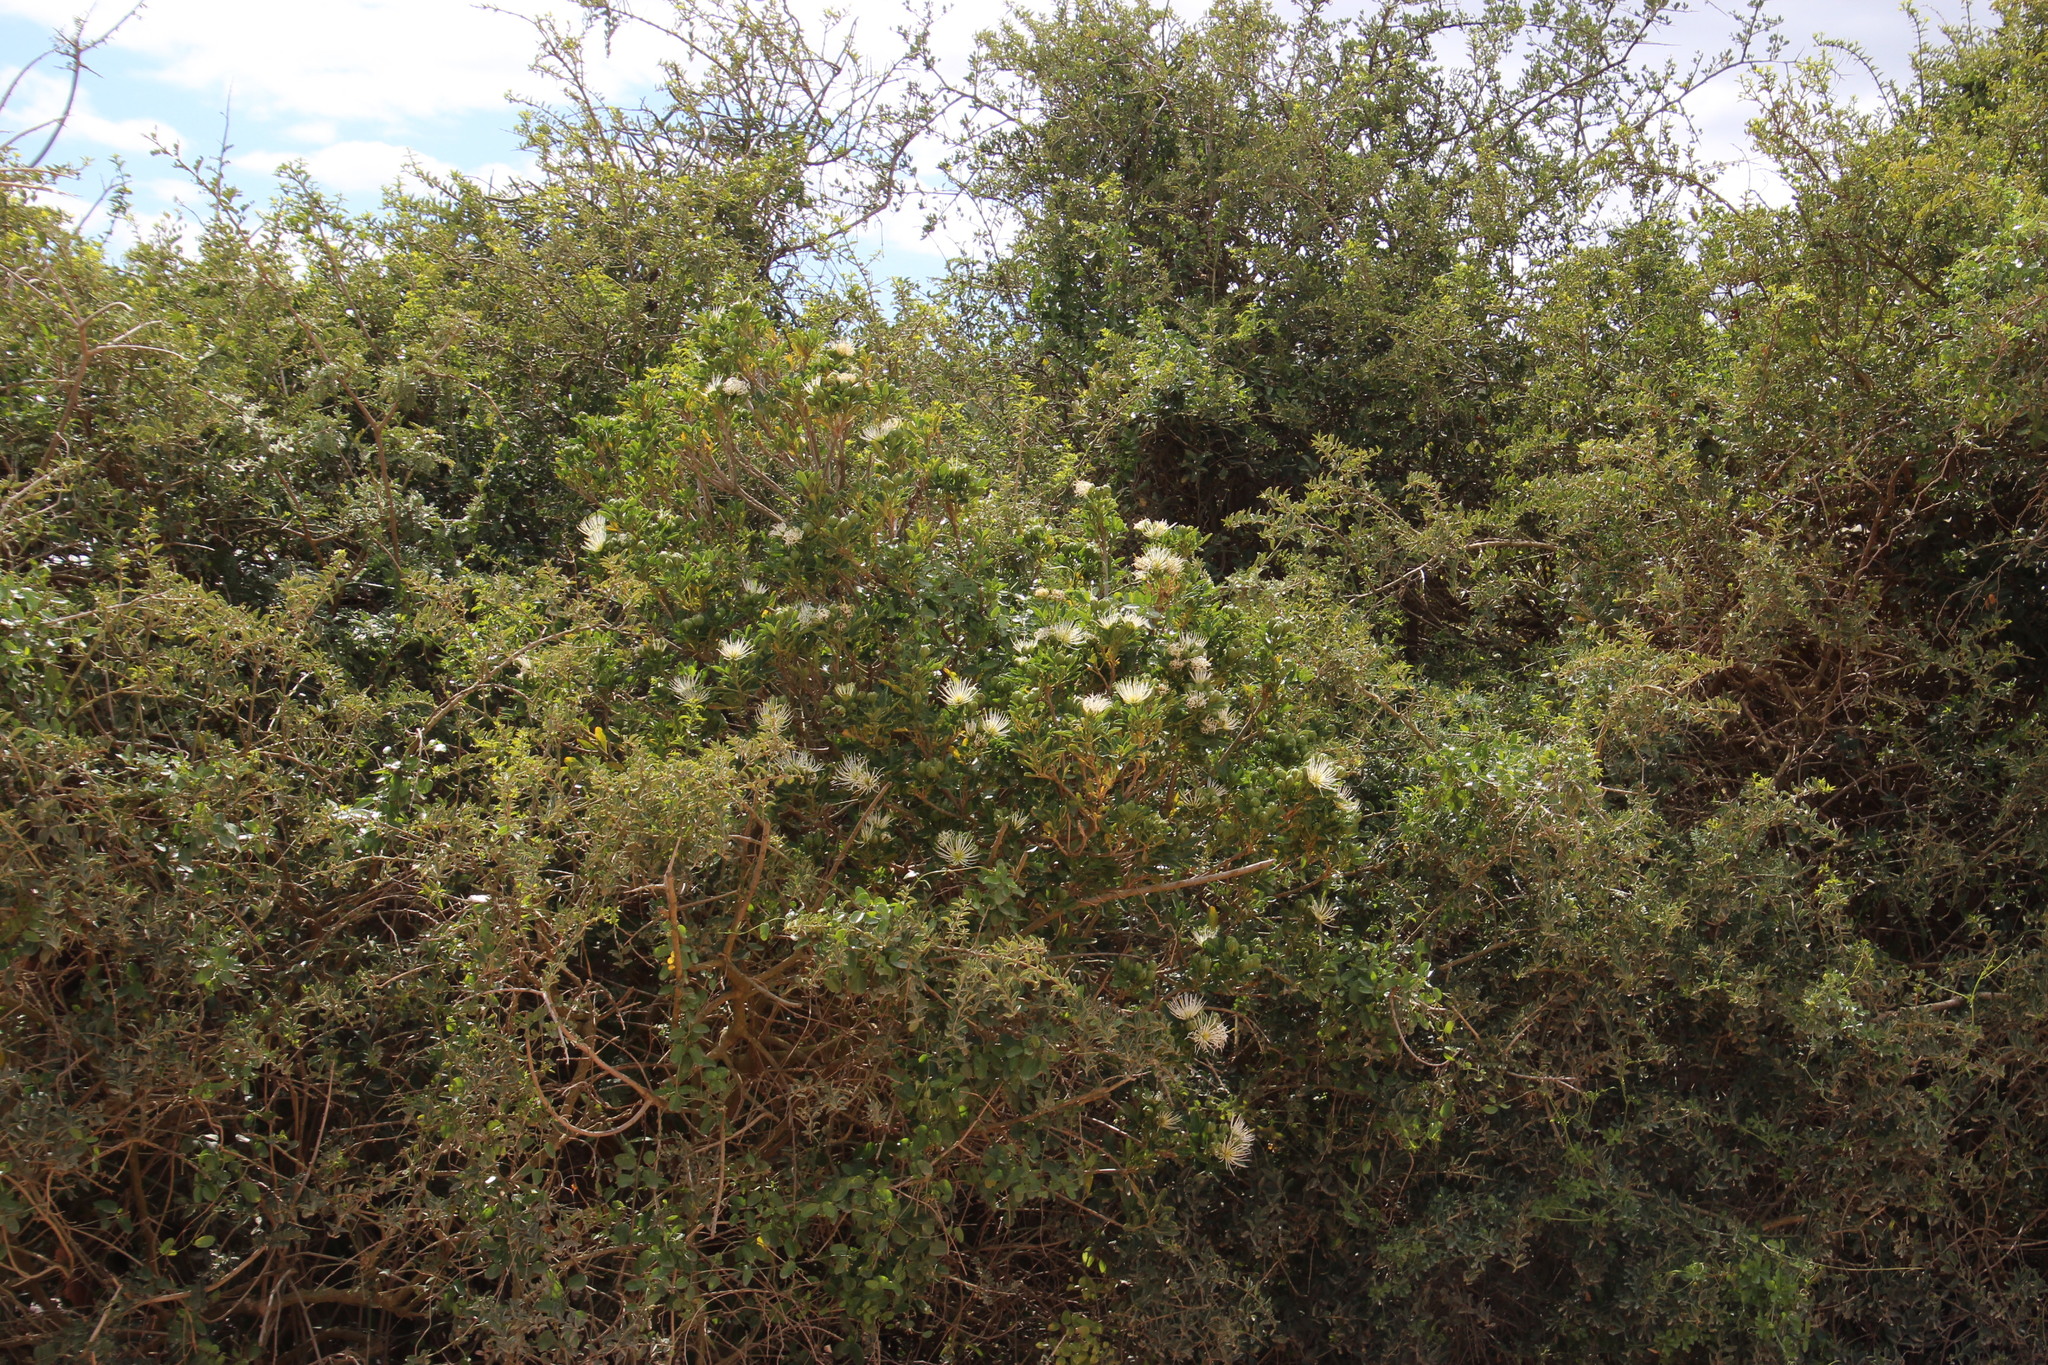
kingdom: Plantae
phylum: Tracheophyta
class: Magnoliopsida
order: Brassicales
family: Capparaceae
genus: Maerua
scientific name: Maerua cafra
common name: Bush maerua
